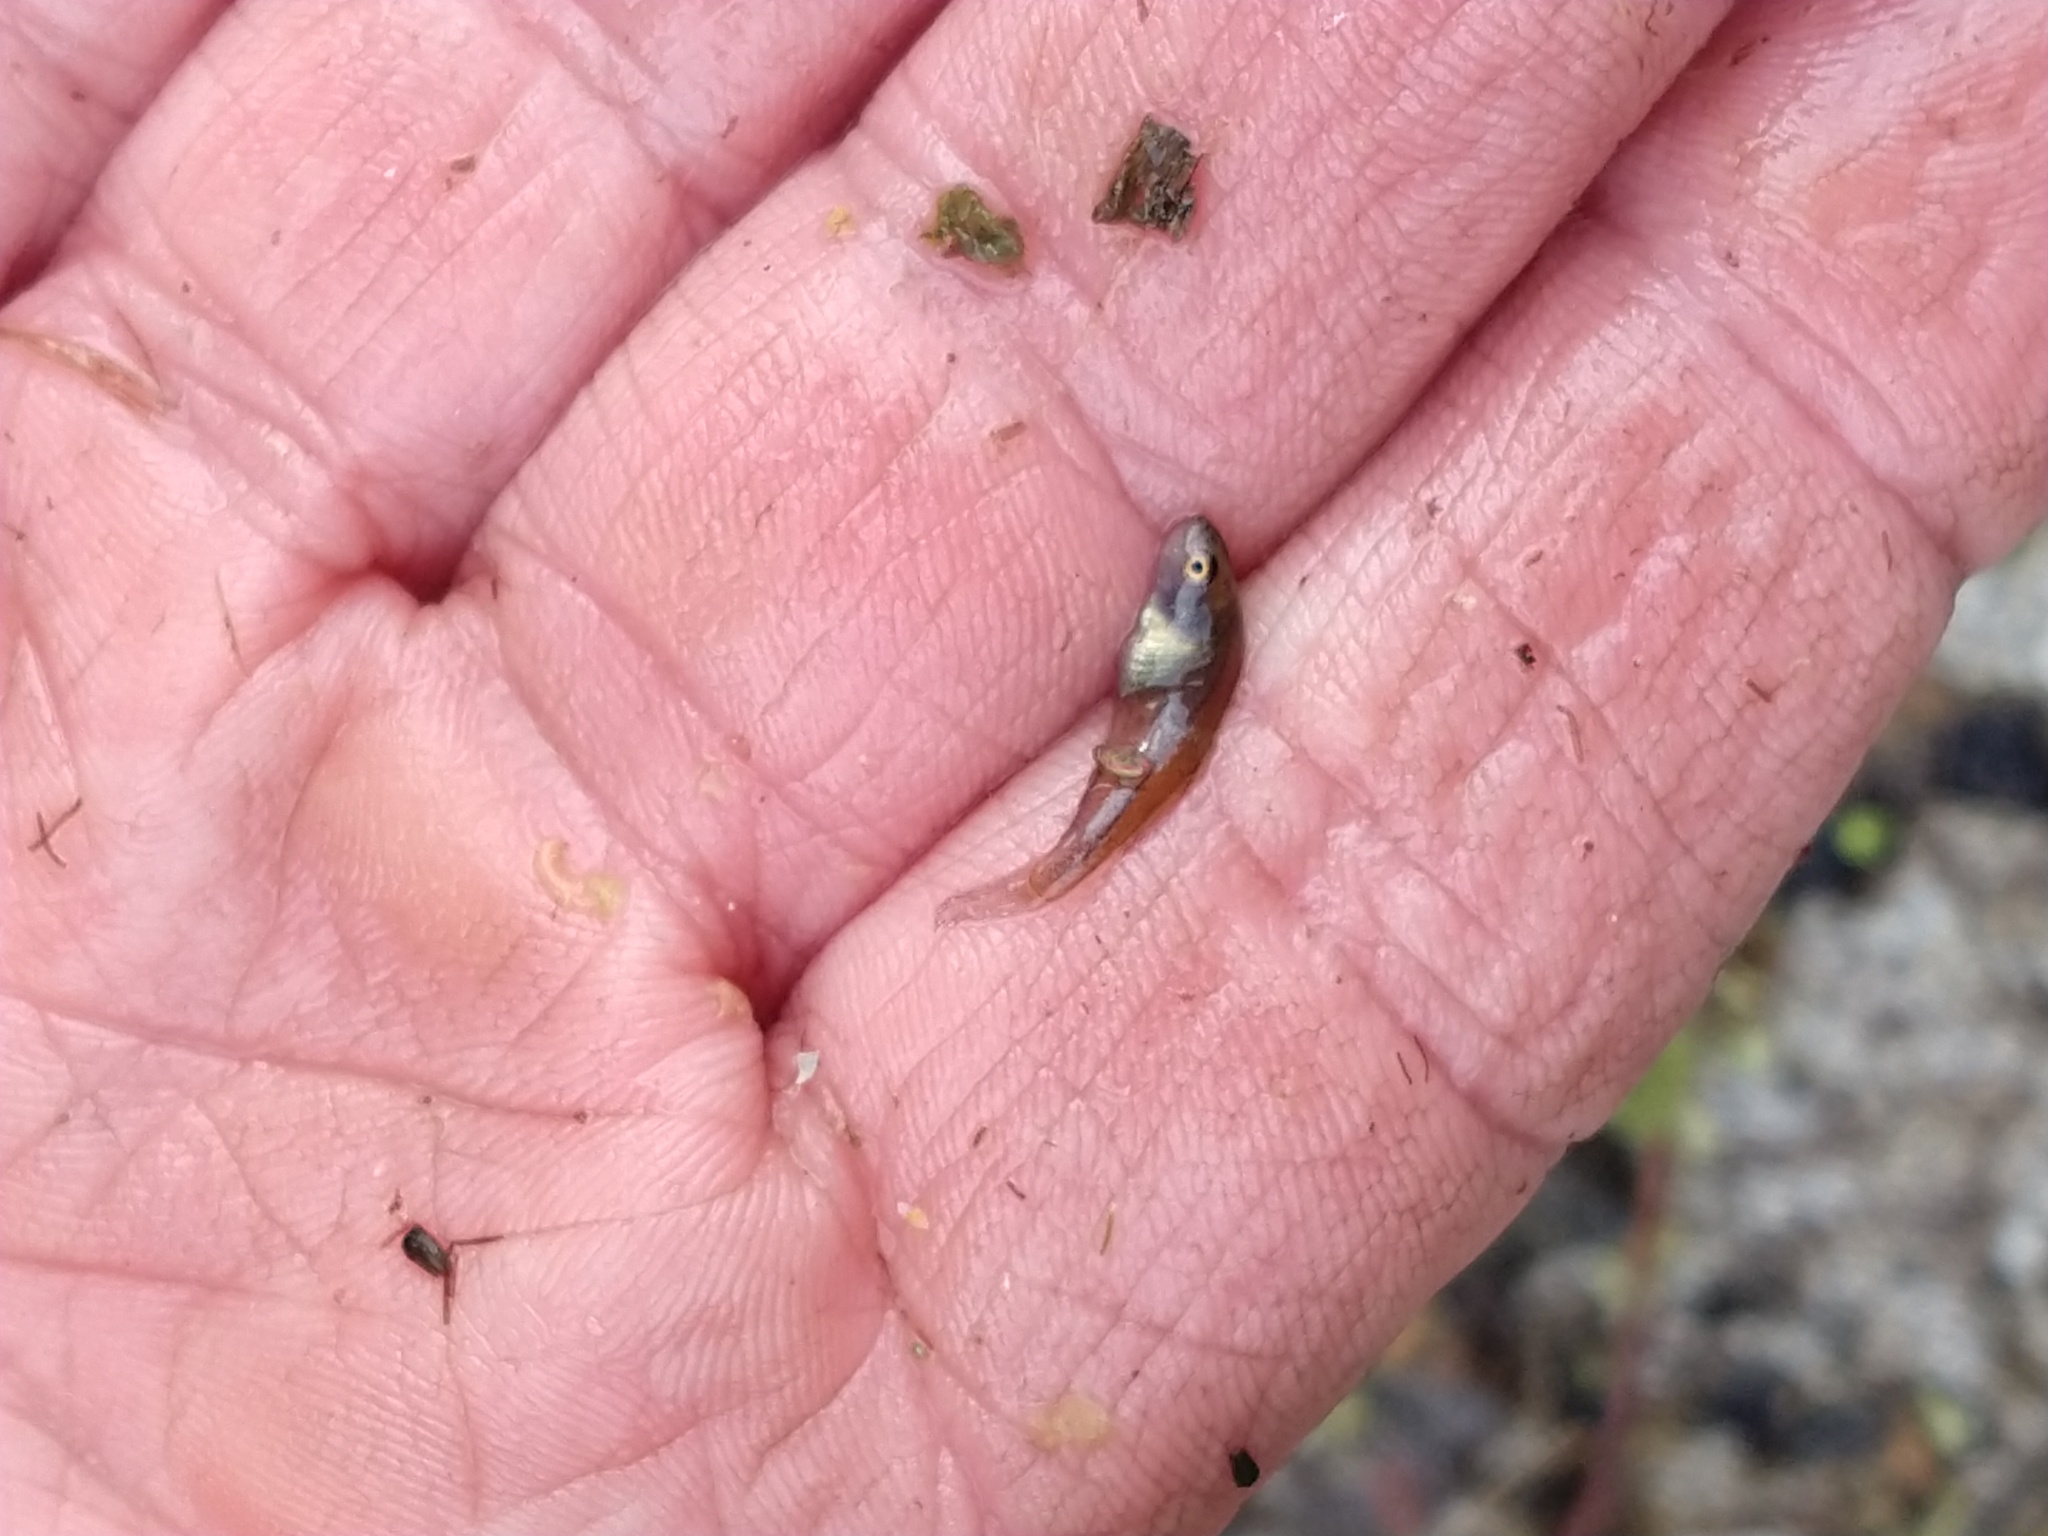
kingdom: Animalia
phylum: Chordata
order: Cyprinodontiformes
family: Rivulidae
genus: Austrolebias
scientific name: Austrolebias elongatus
